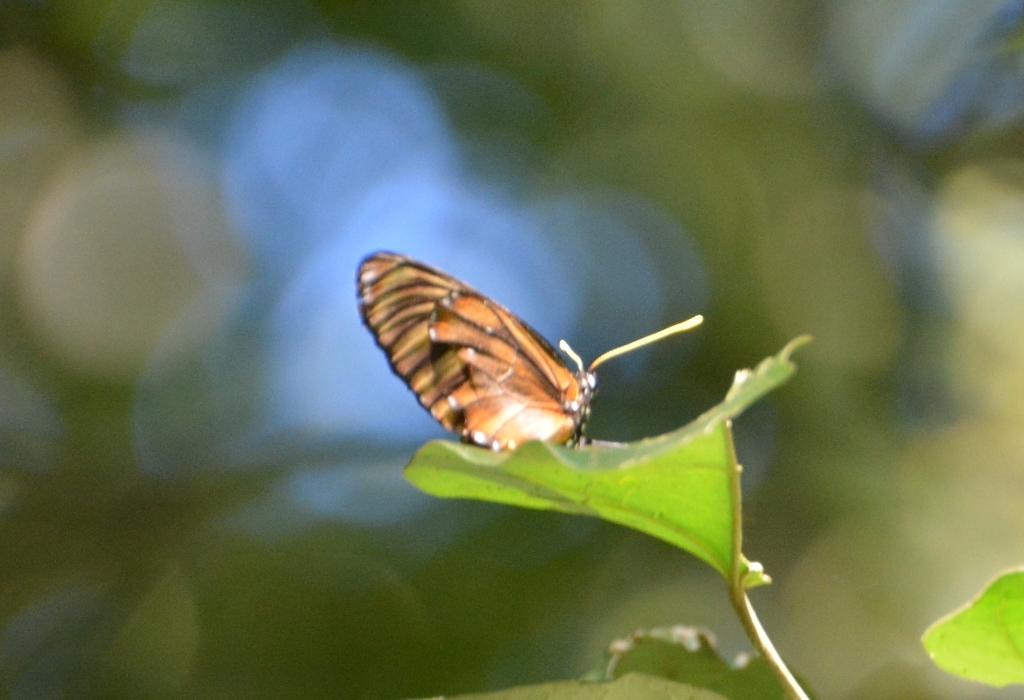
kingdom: Animalia
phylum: Arthropoda
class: Insecta
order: Lepidoptera
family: Nymphalidae
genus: Lycorea
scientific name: Lycorea ilione
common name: Clearwing mimic-queen
